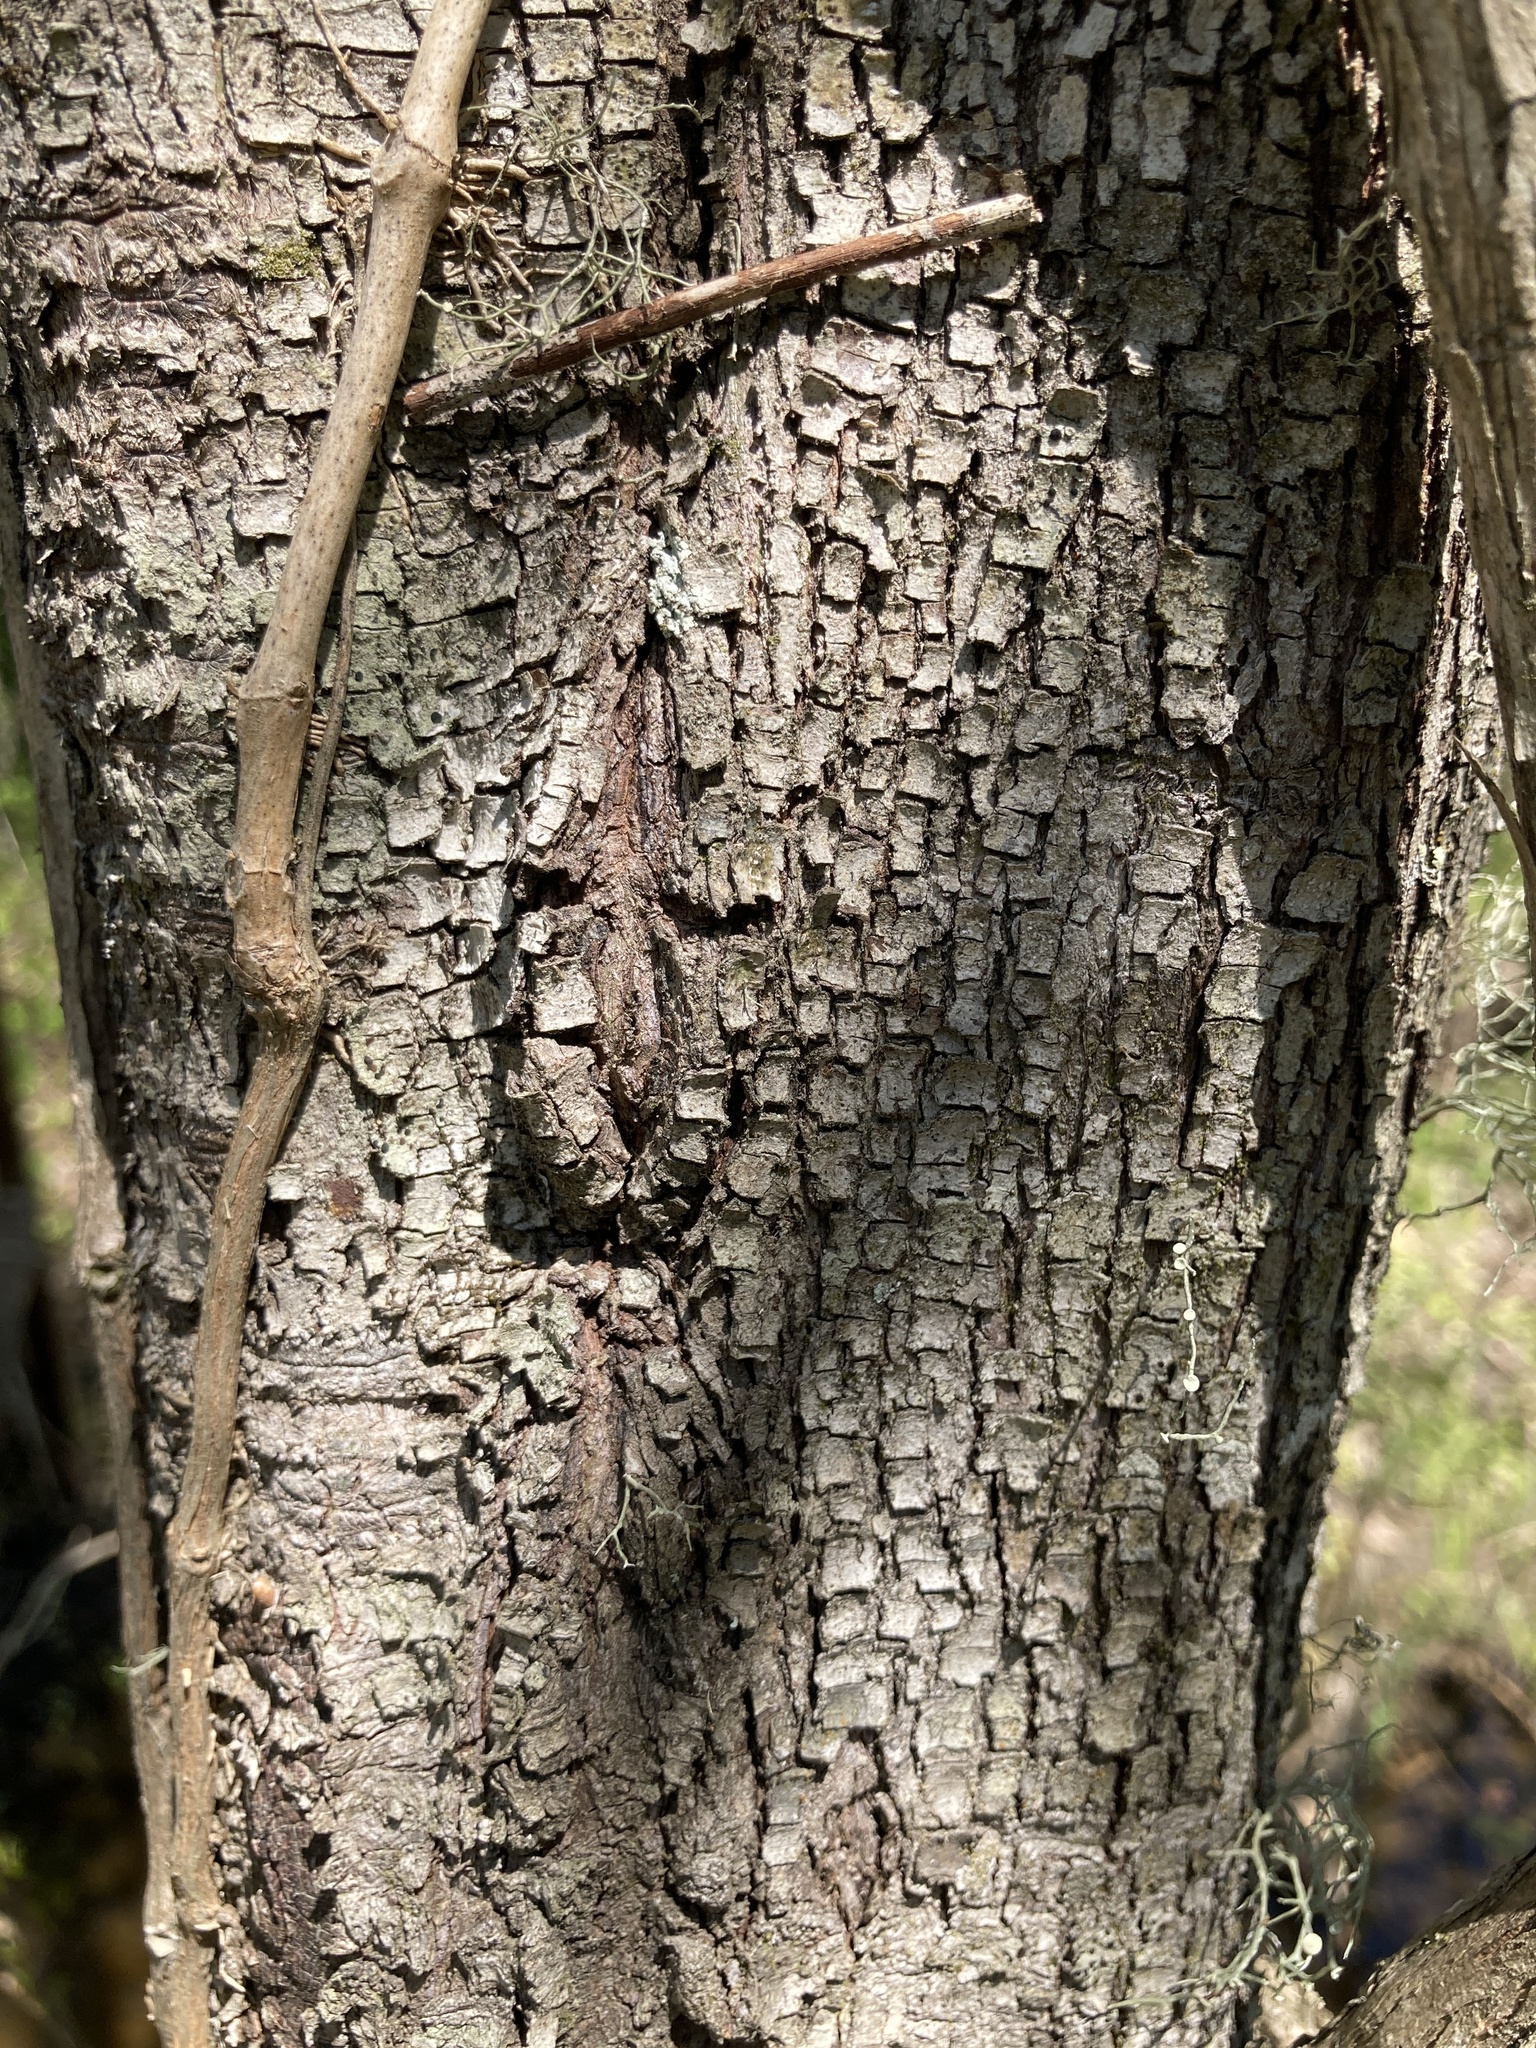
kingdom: Plantae
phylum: Tracheophyta
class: Magnoliopsida
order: Cornales
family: Cornaceae
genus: Cornus
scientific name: Cornus drummondii
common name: Rough-leaf dogwood
